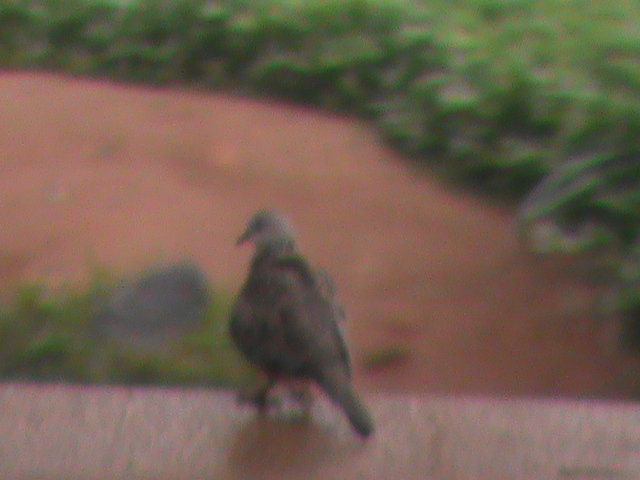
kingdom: Animalia
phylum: Chordata
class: Aves
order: Columbiformes
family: Columbidae
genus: Spilopelia
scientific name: Spilopelia chinensis
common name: Spotted dove
